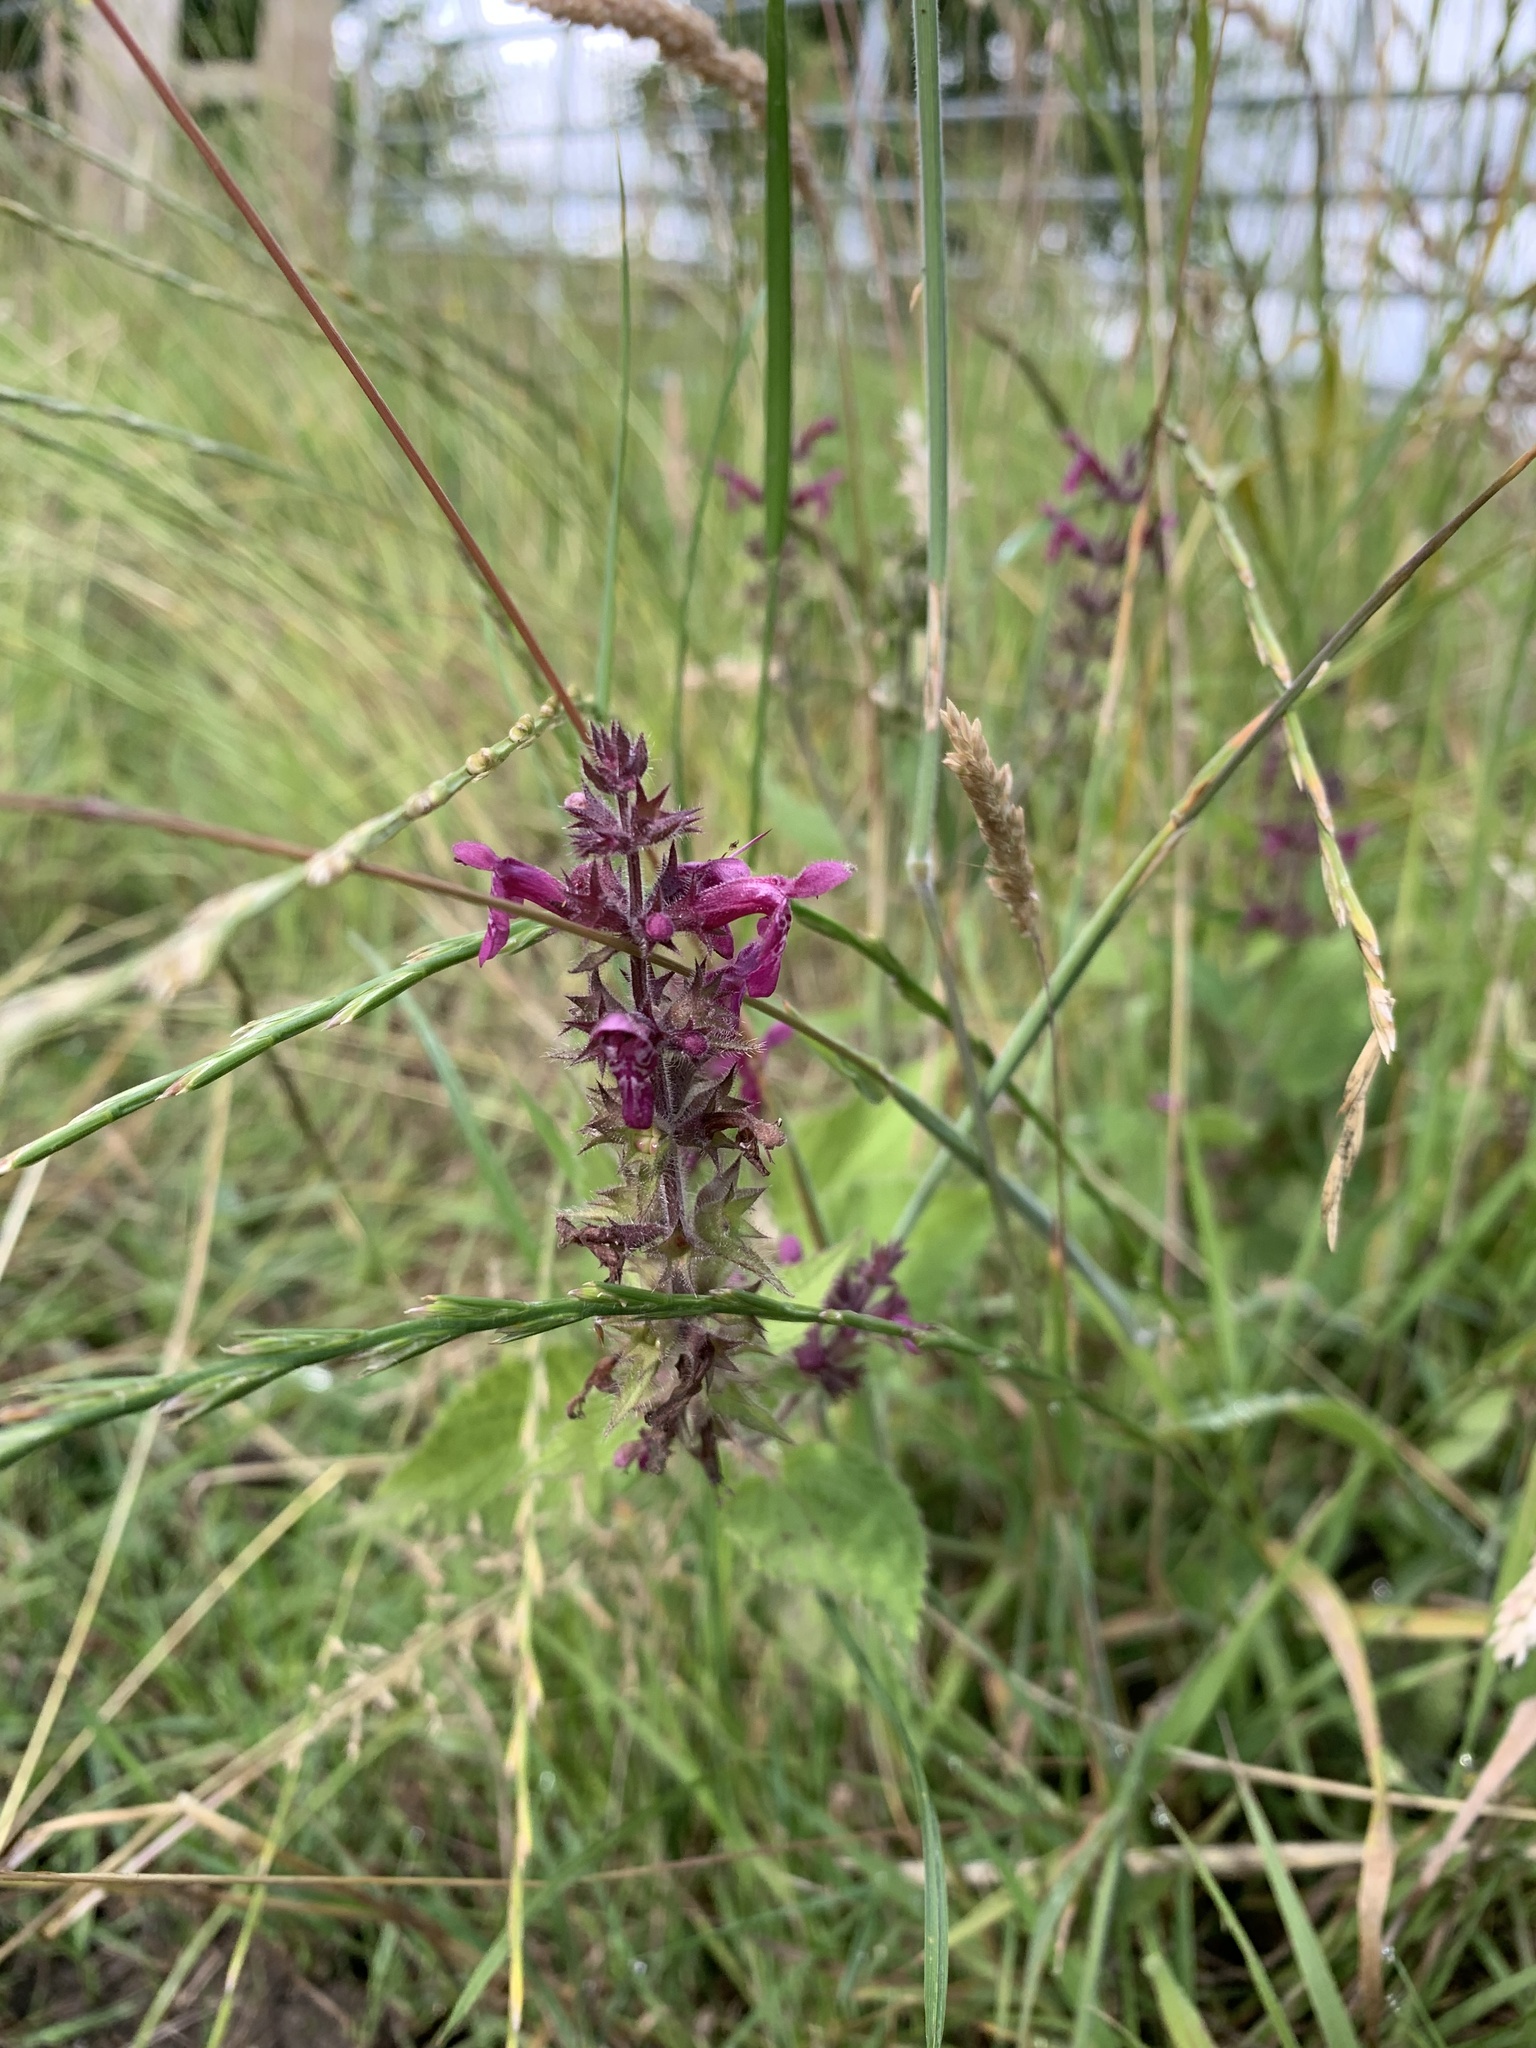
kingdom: Plantae
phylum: Tracheophyta
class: Magnoliopsida
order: Lamiales
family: Lamiaceae
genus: Stachys
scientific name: Stachys sylvatica
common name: Hedge woundwort
